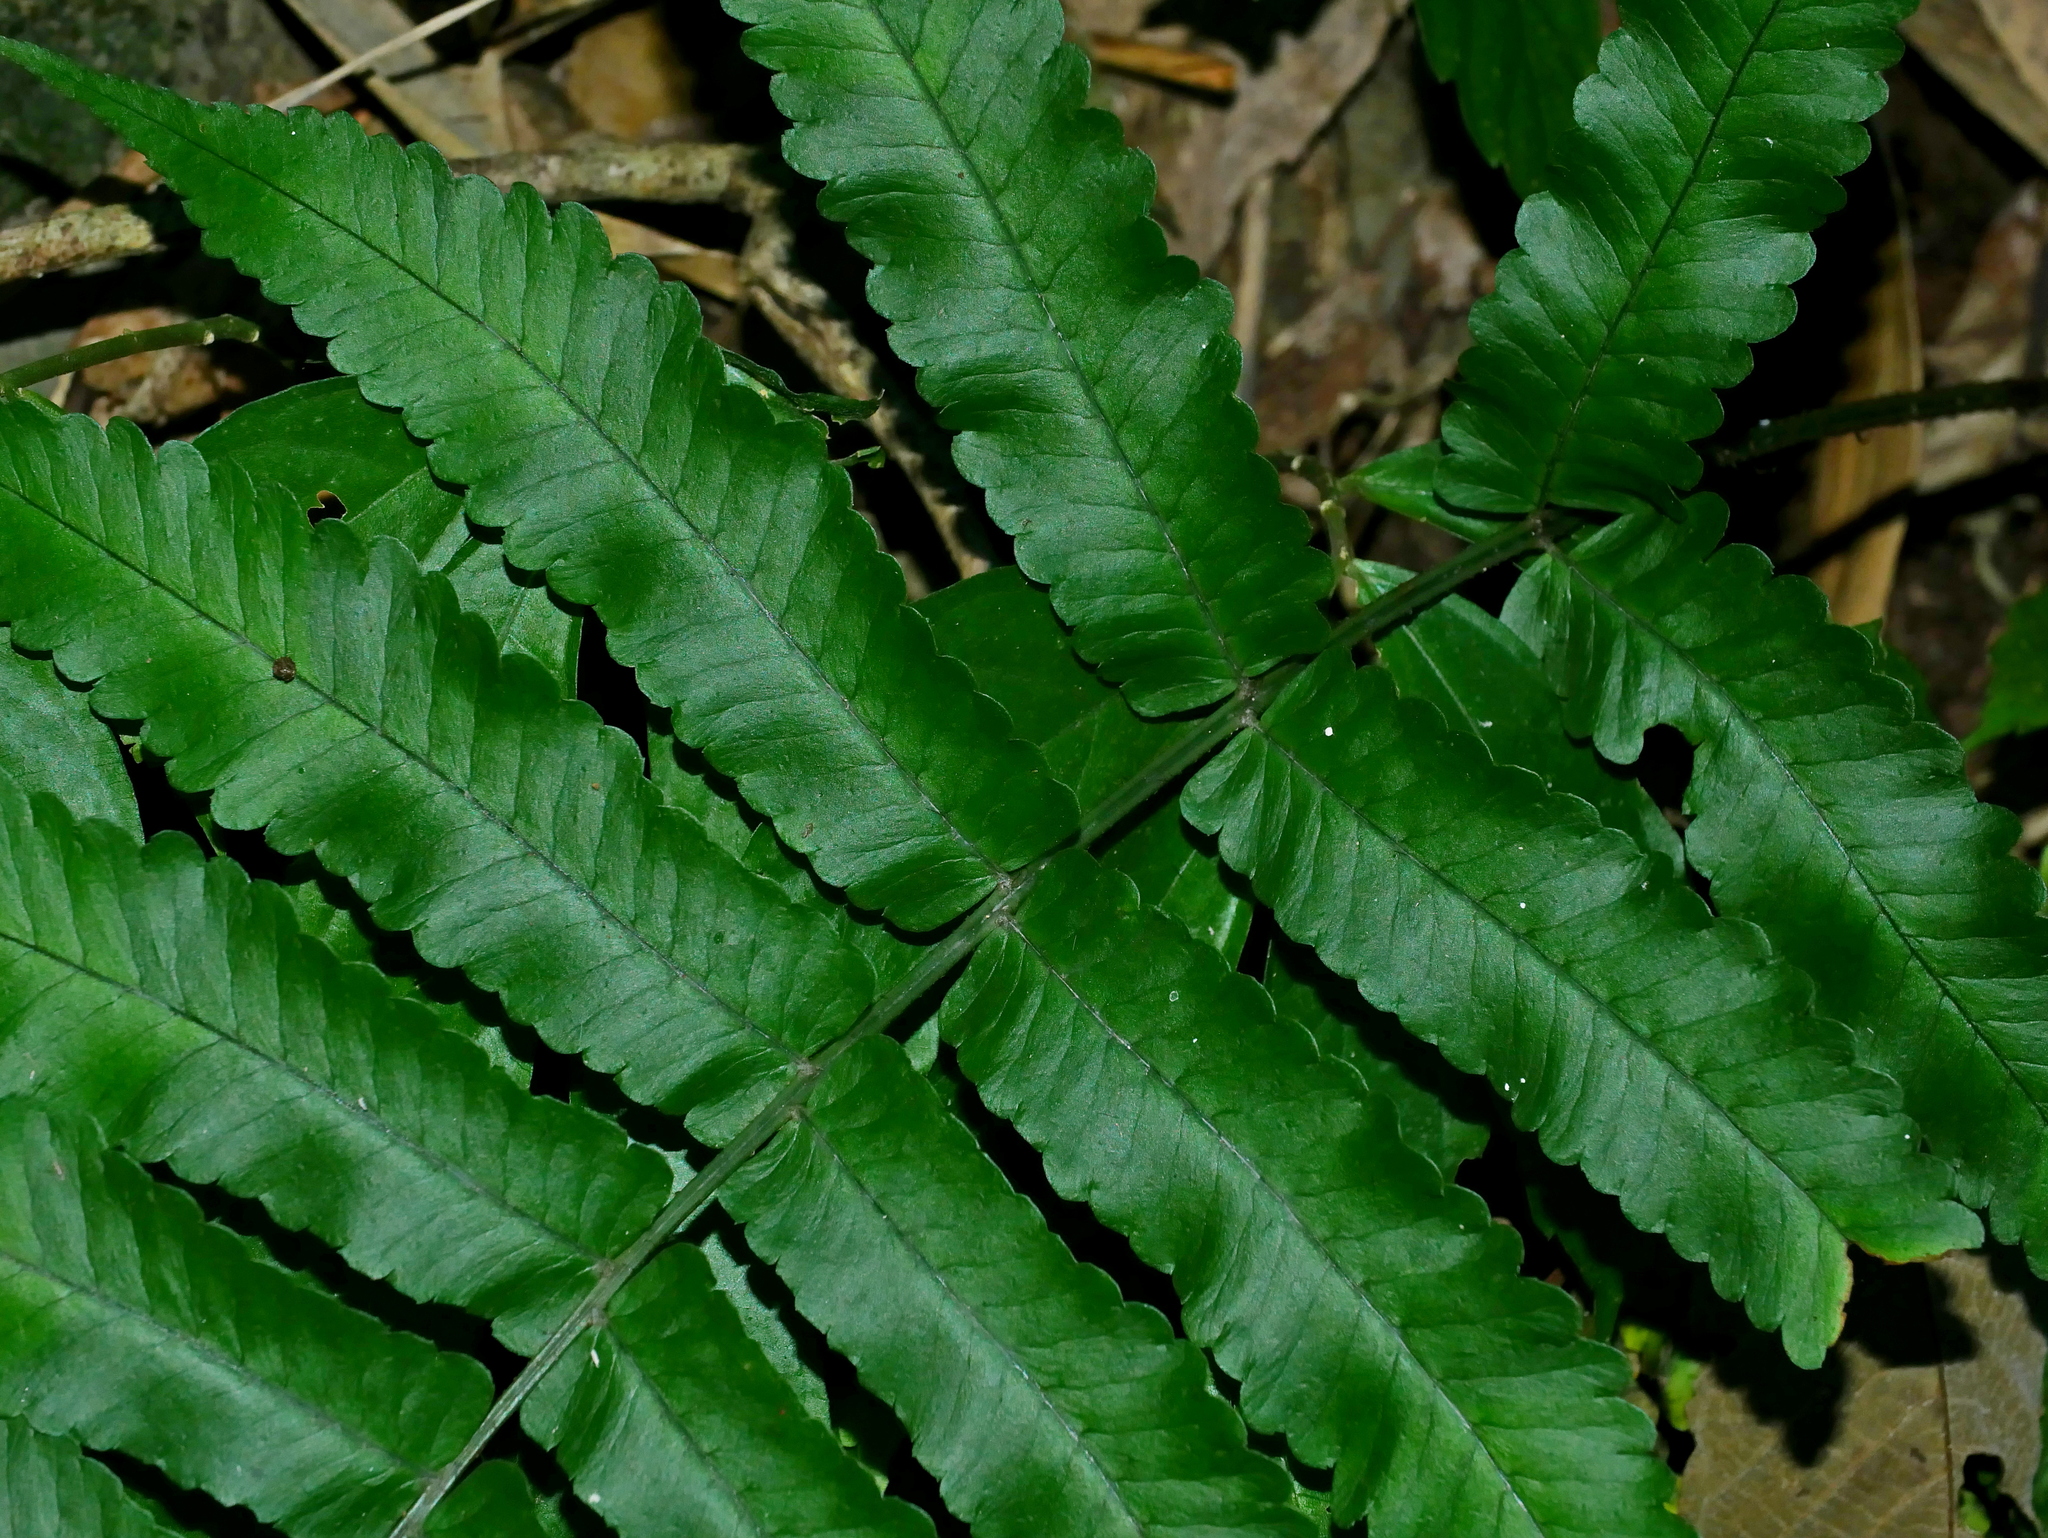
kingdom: Plantae
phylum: Tracheophyta
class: Polypodiopsida
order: Polypodiales
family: Dryopteridaceae
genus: Dryopteris
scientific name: Dryopteris scottii
